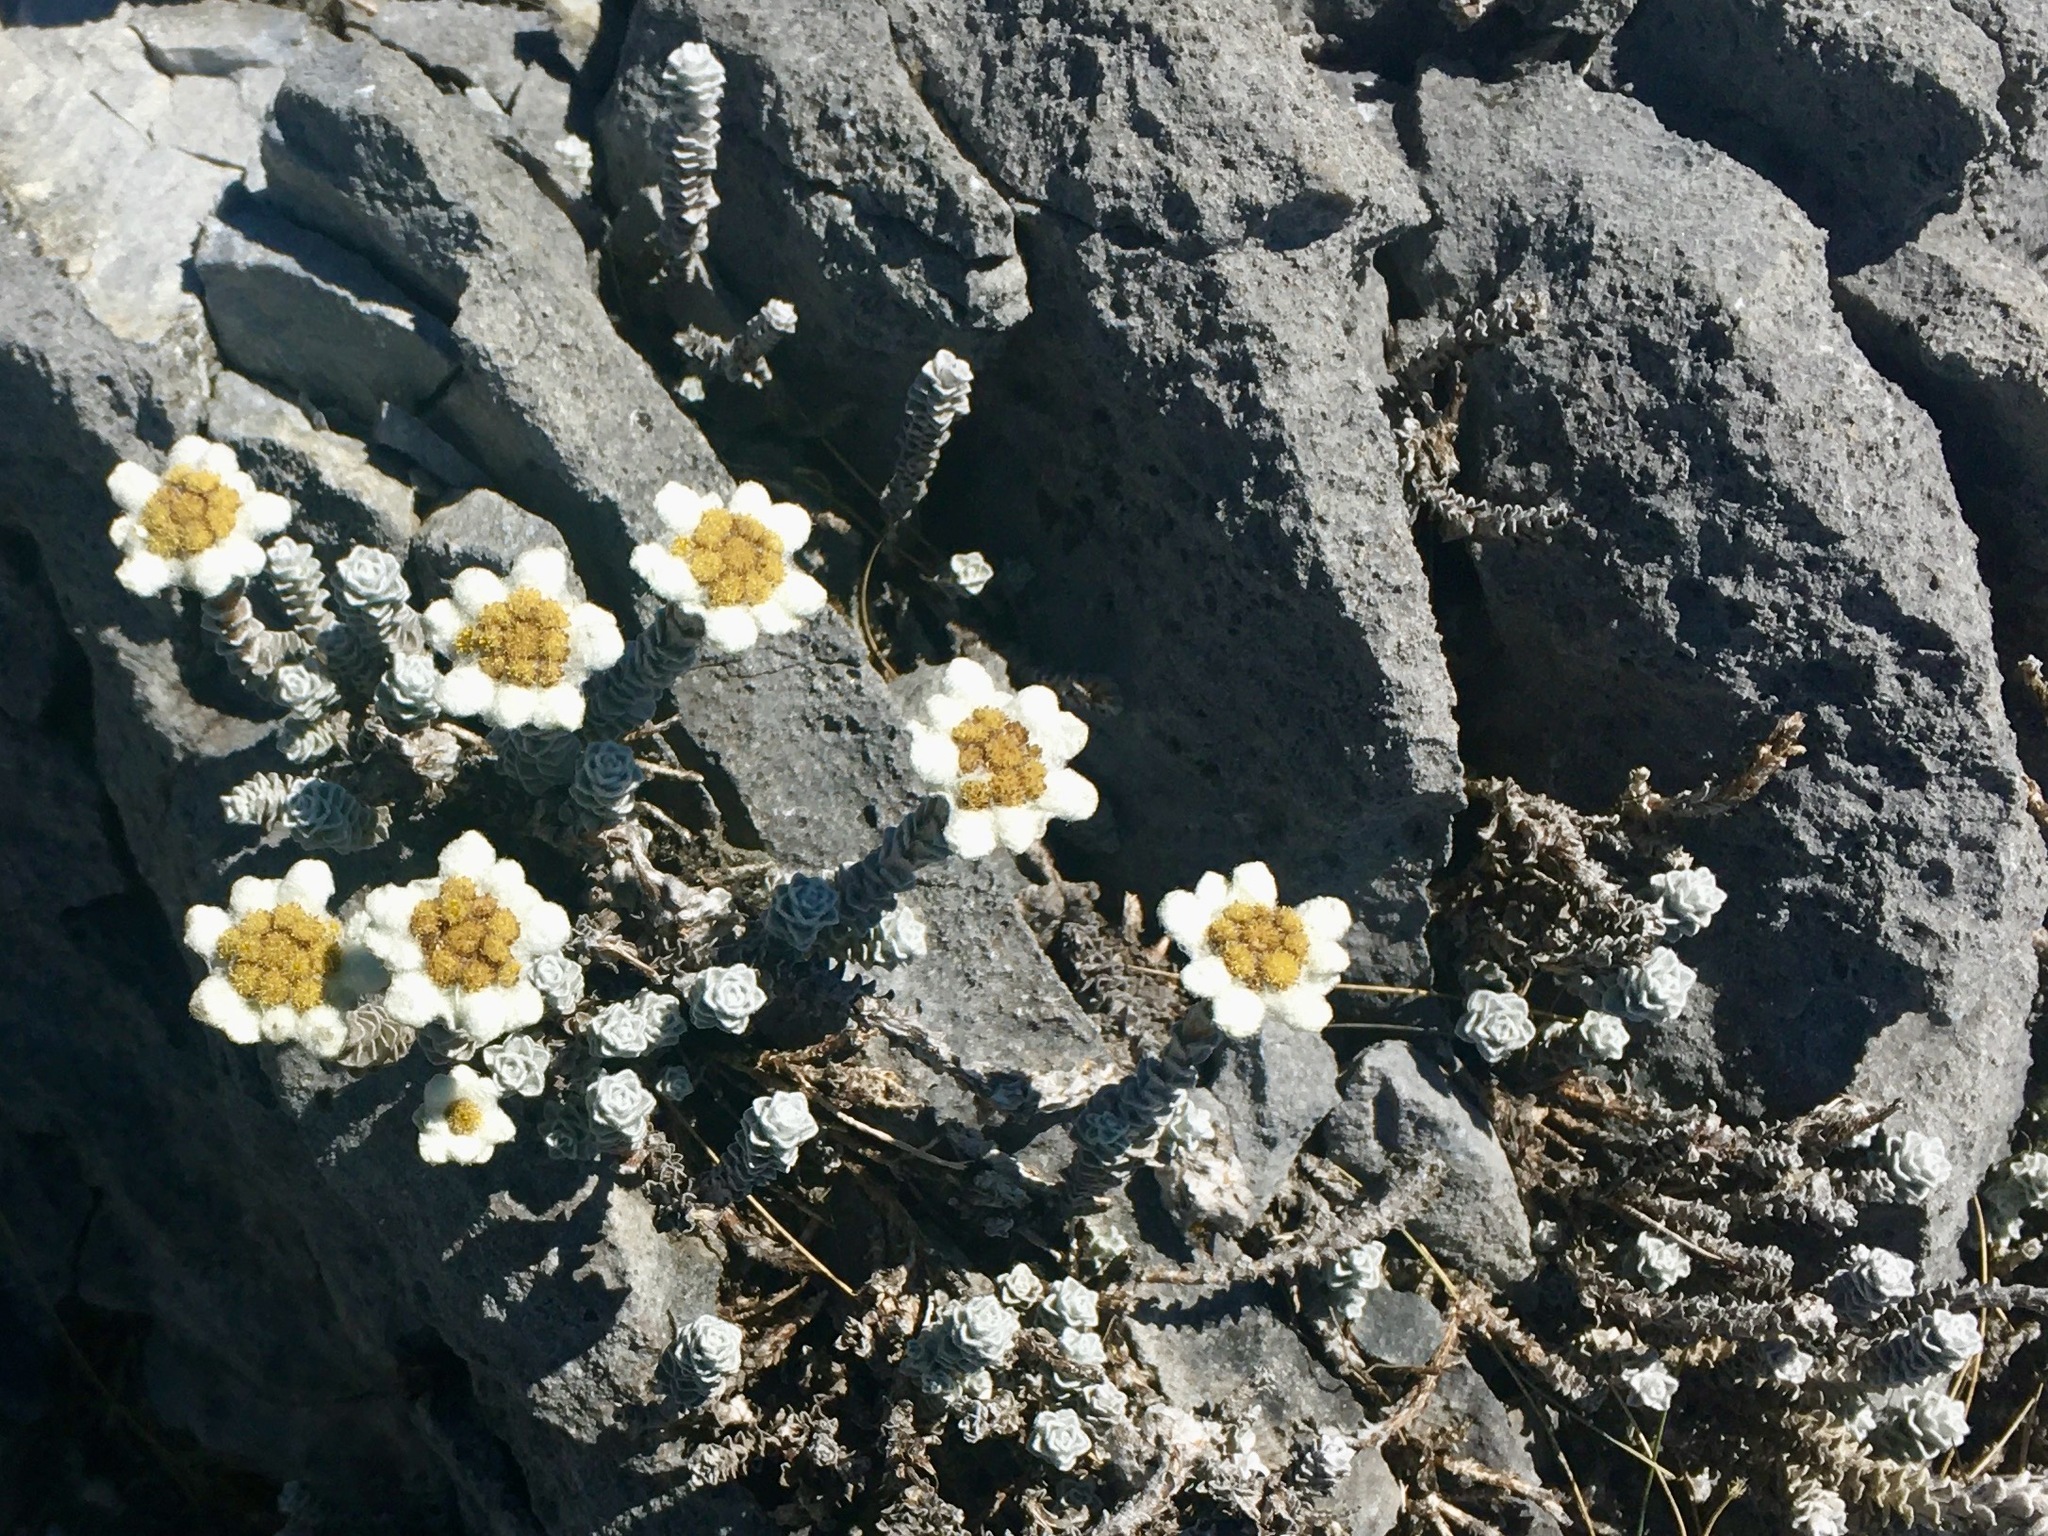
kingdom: Plantae
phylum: Tracheophyta
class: Magnoliopsida
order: Asterales
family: Asteraceae
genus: Leucogenes
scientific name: Leucogenes grandiceps
